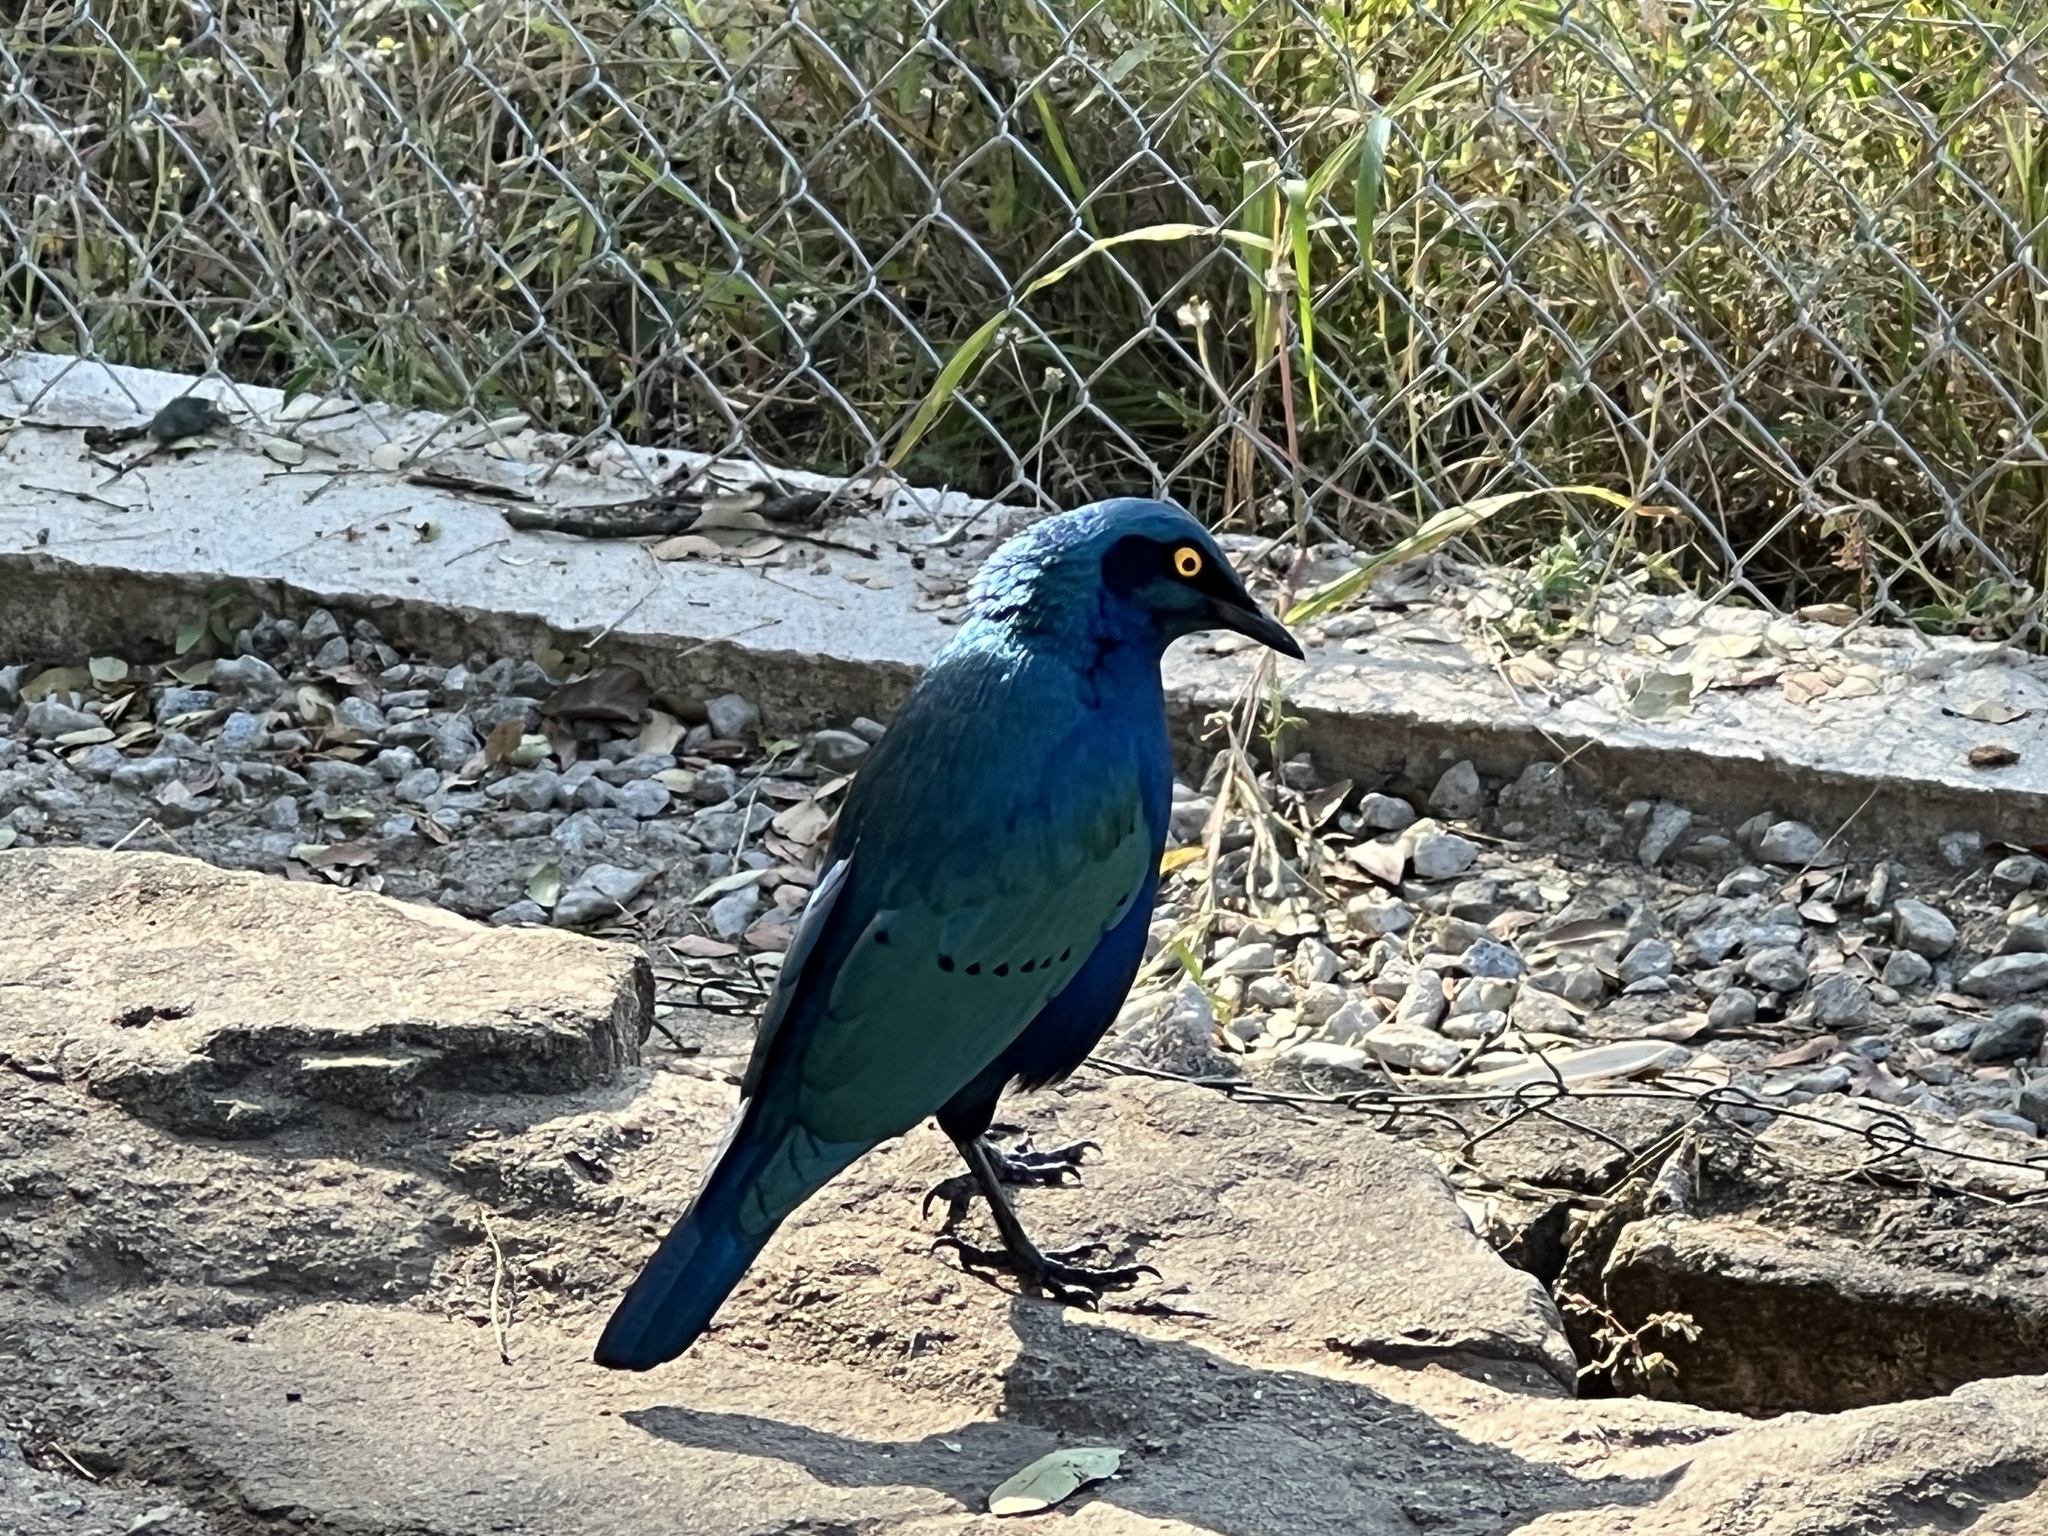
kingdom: Animalia
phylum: Chordata
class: Aves
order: Passeriformes
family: Sturnidae
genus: Lamprotornis
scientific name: Lamprotornis chalybaeus
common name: Greater blue-eared starling
